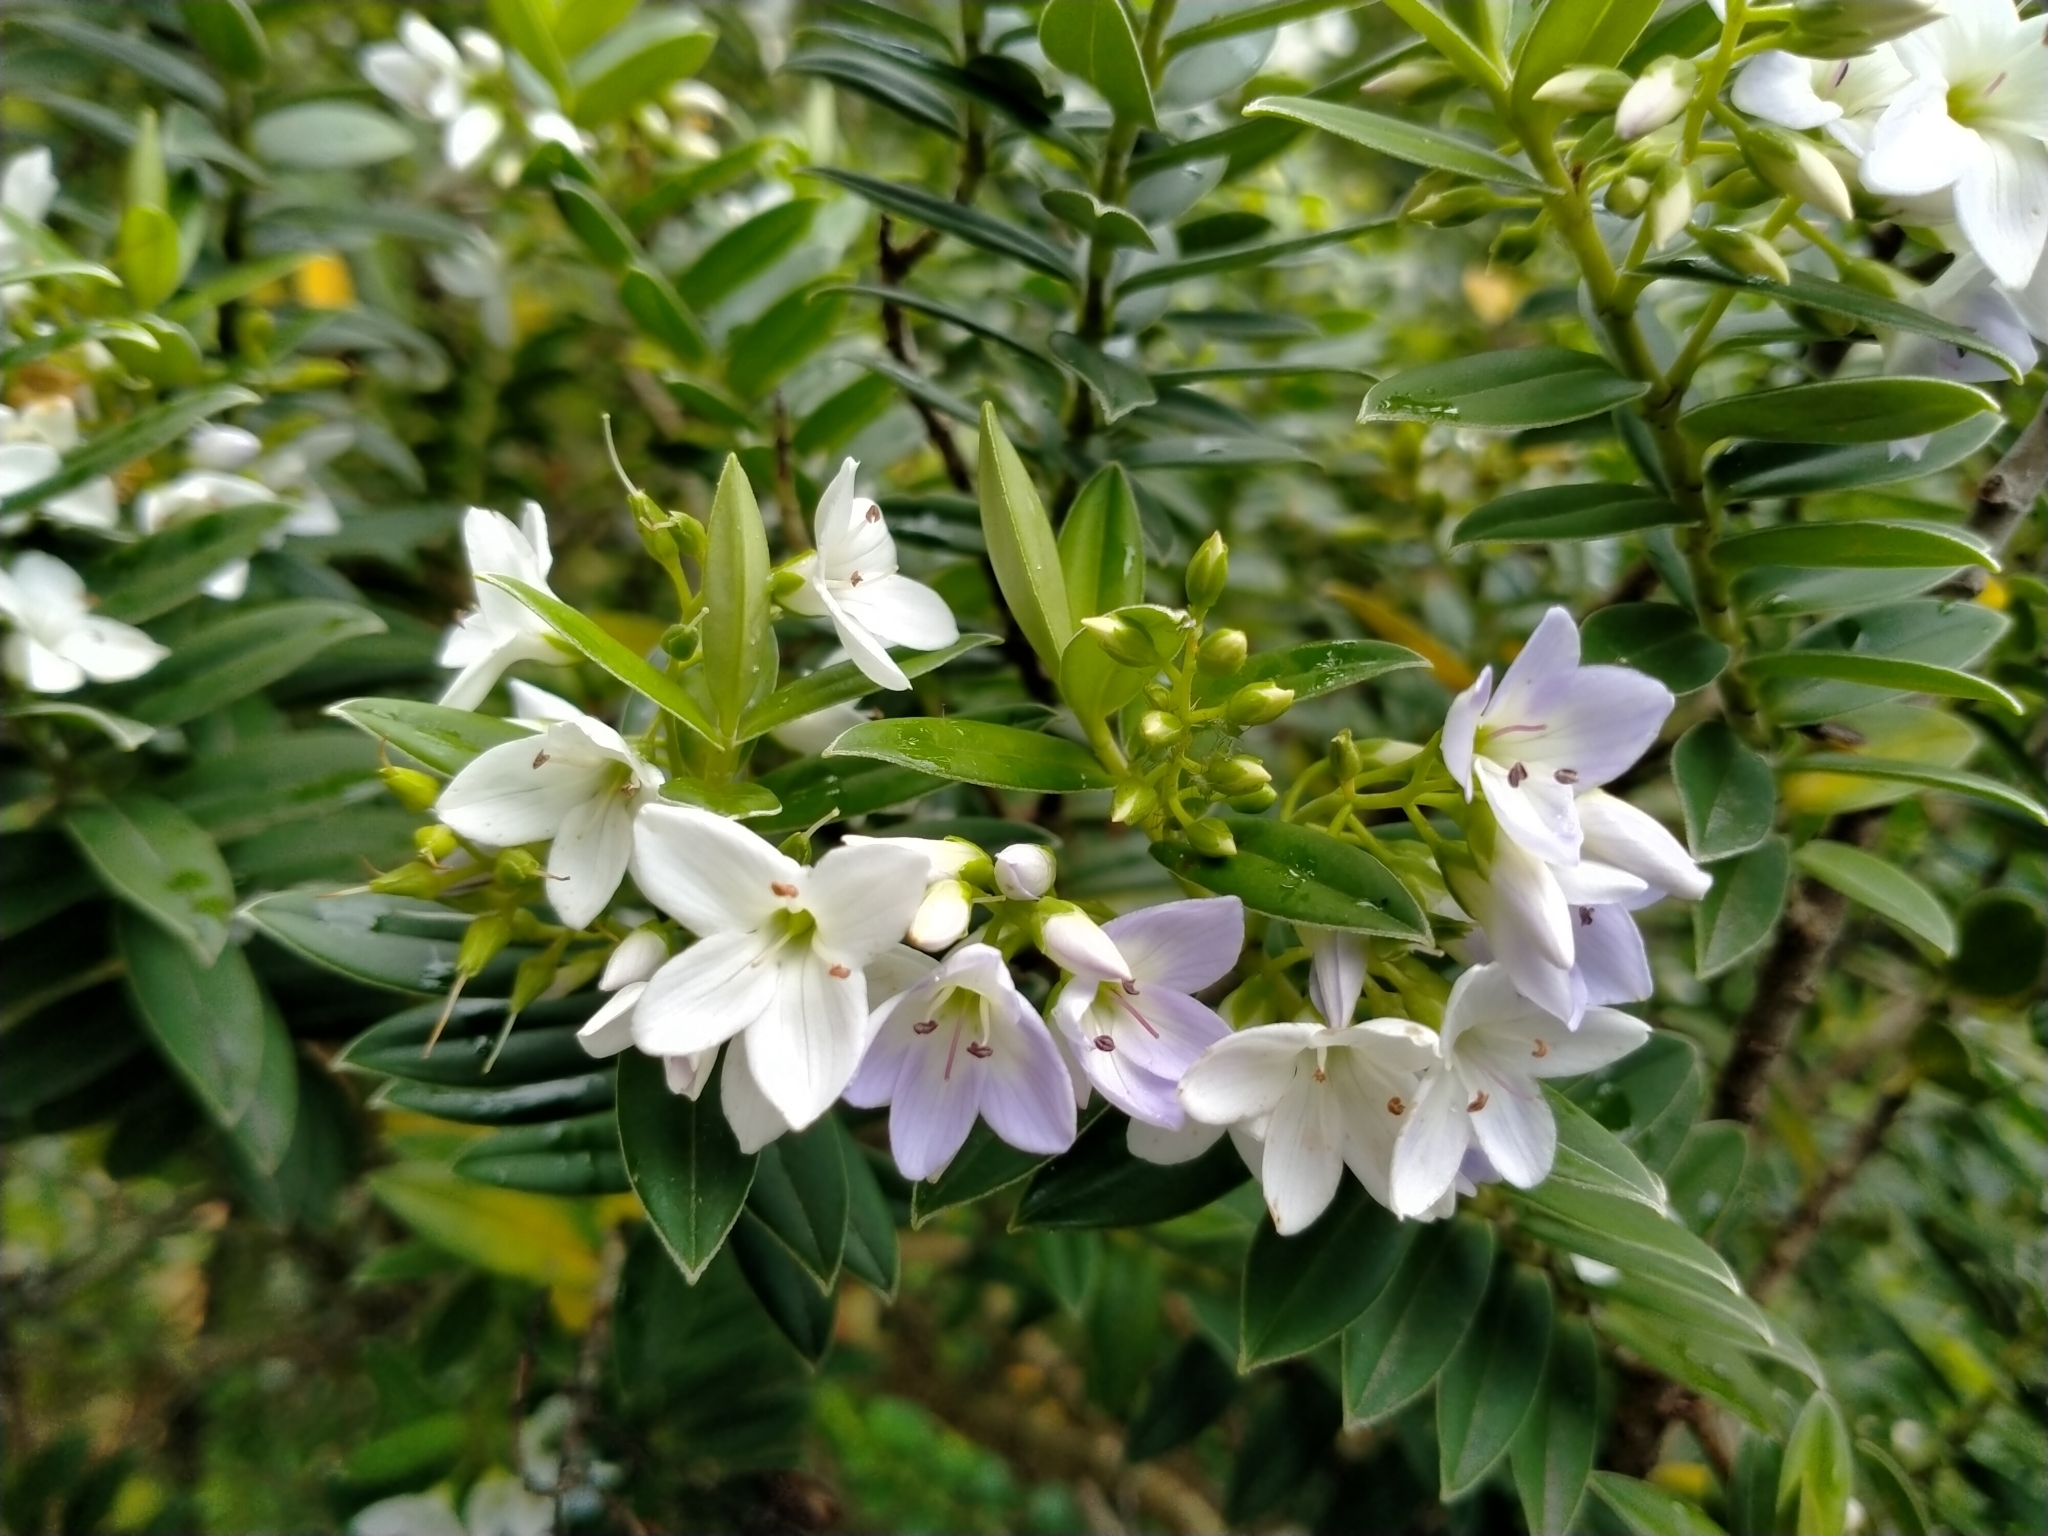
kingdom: Plantae
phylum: Tracheophyta
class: Magnoliopsida
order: Lamiales
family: Plantaginaceae
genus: Veronica
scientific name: Veronica elliptica
